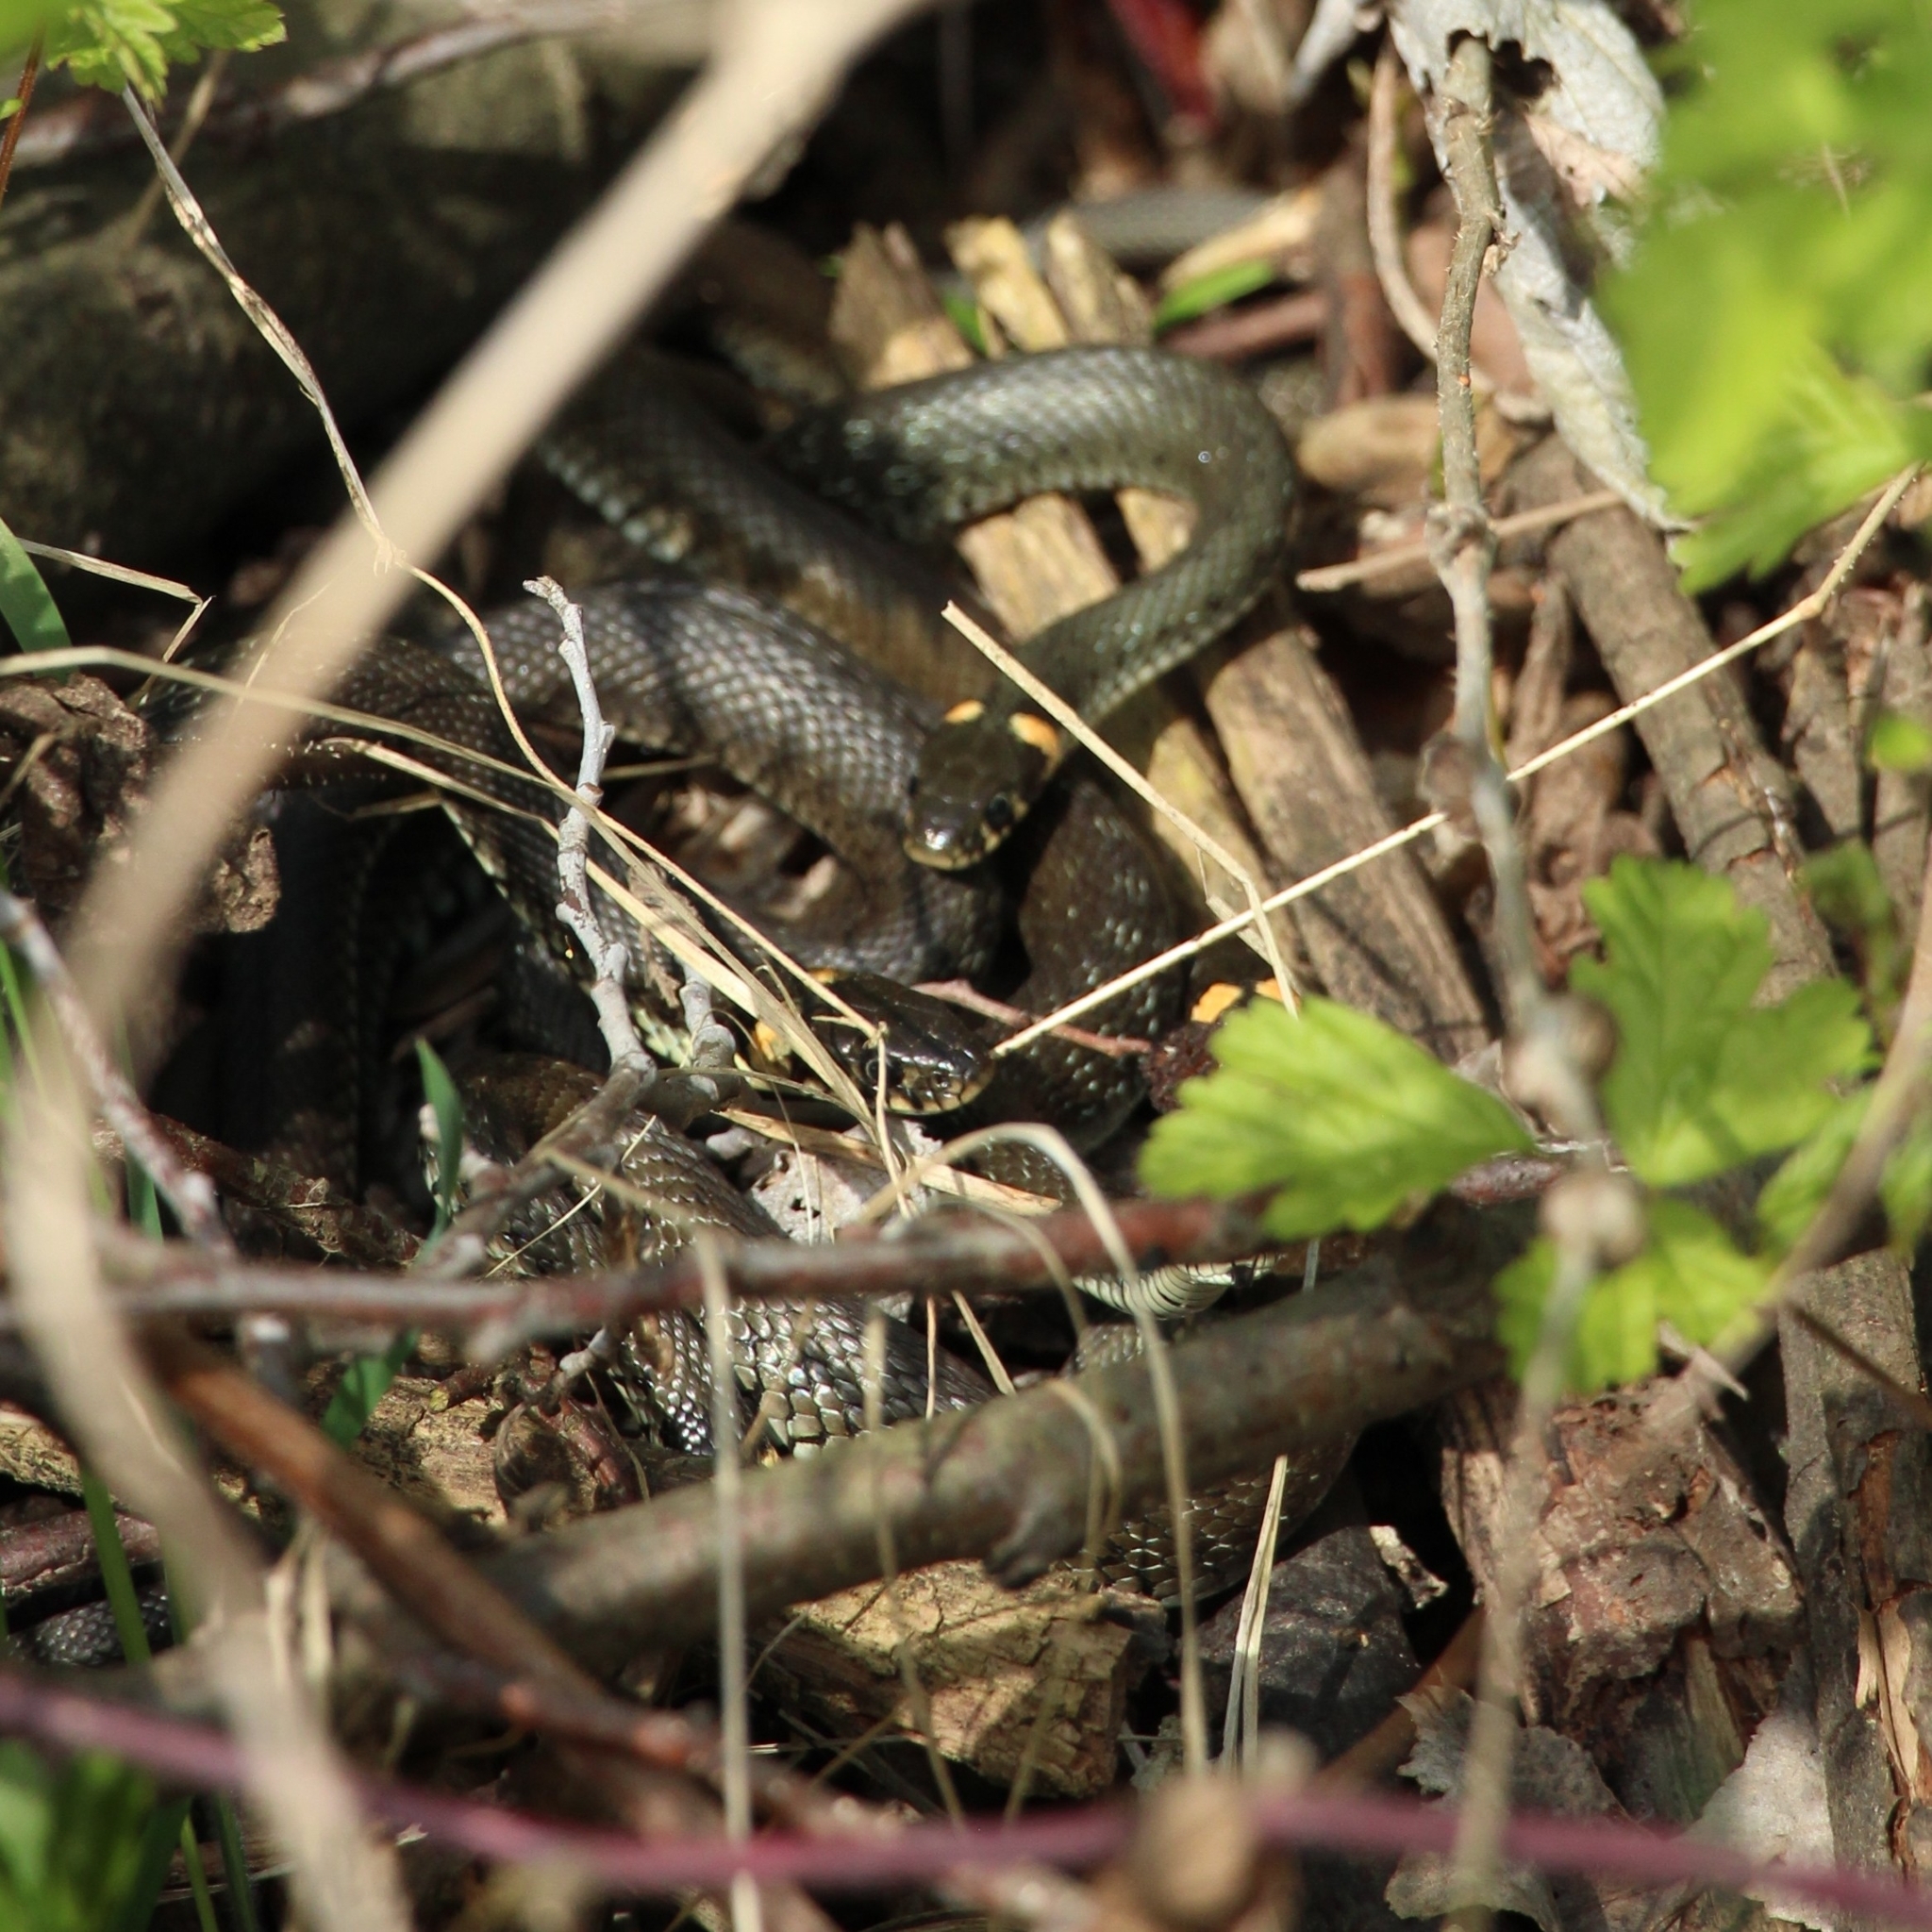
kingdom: Animalia
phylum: Chordata
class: Squamata
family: Colubridae
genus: Natrix
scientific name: Natrix natrix
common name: Grass snake
